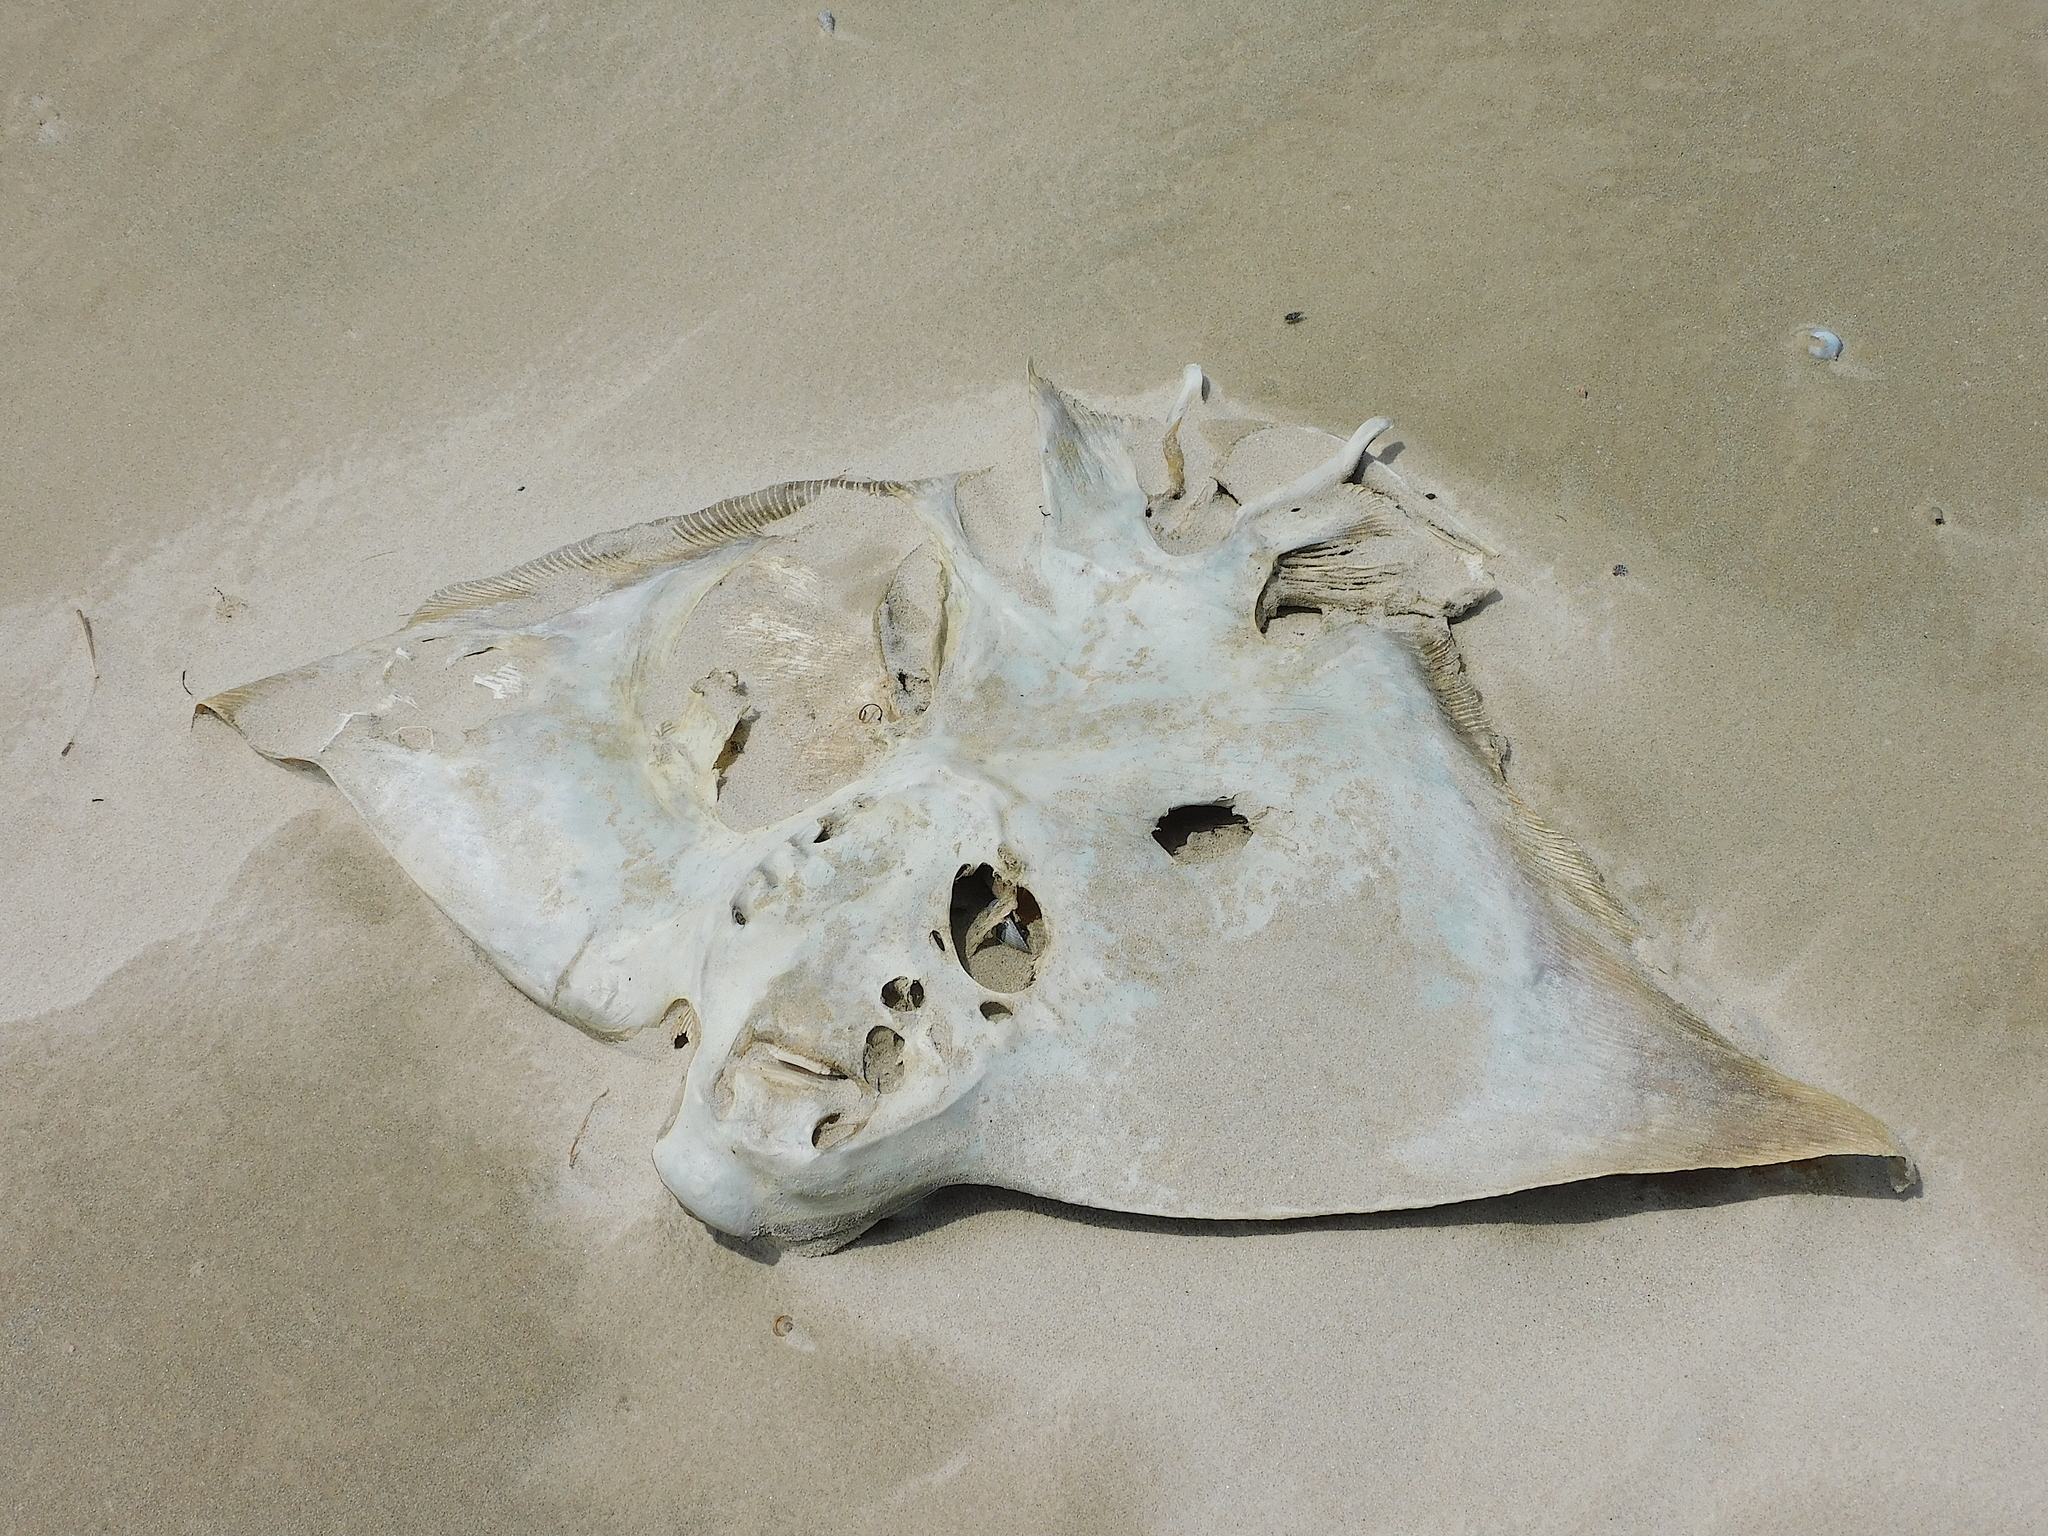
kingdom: Animalia
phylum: Chordata
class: Elasmobranchii
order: Myliobatiformes
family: Myliobatidae
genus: Myliobatis
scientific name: Myliobatis tenuicaudatus
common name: Eagle ray
